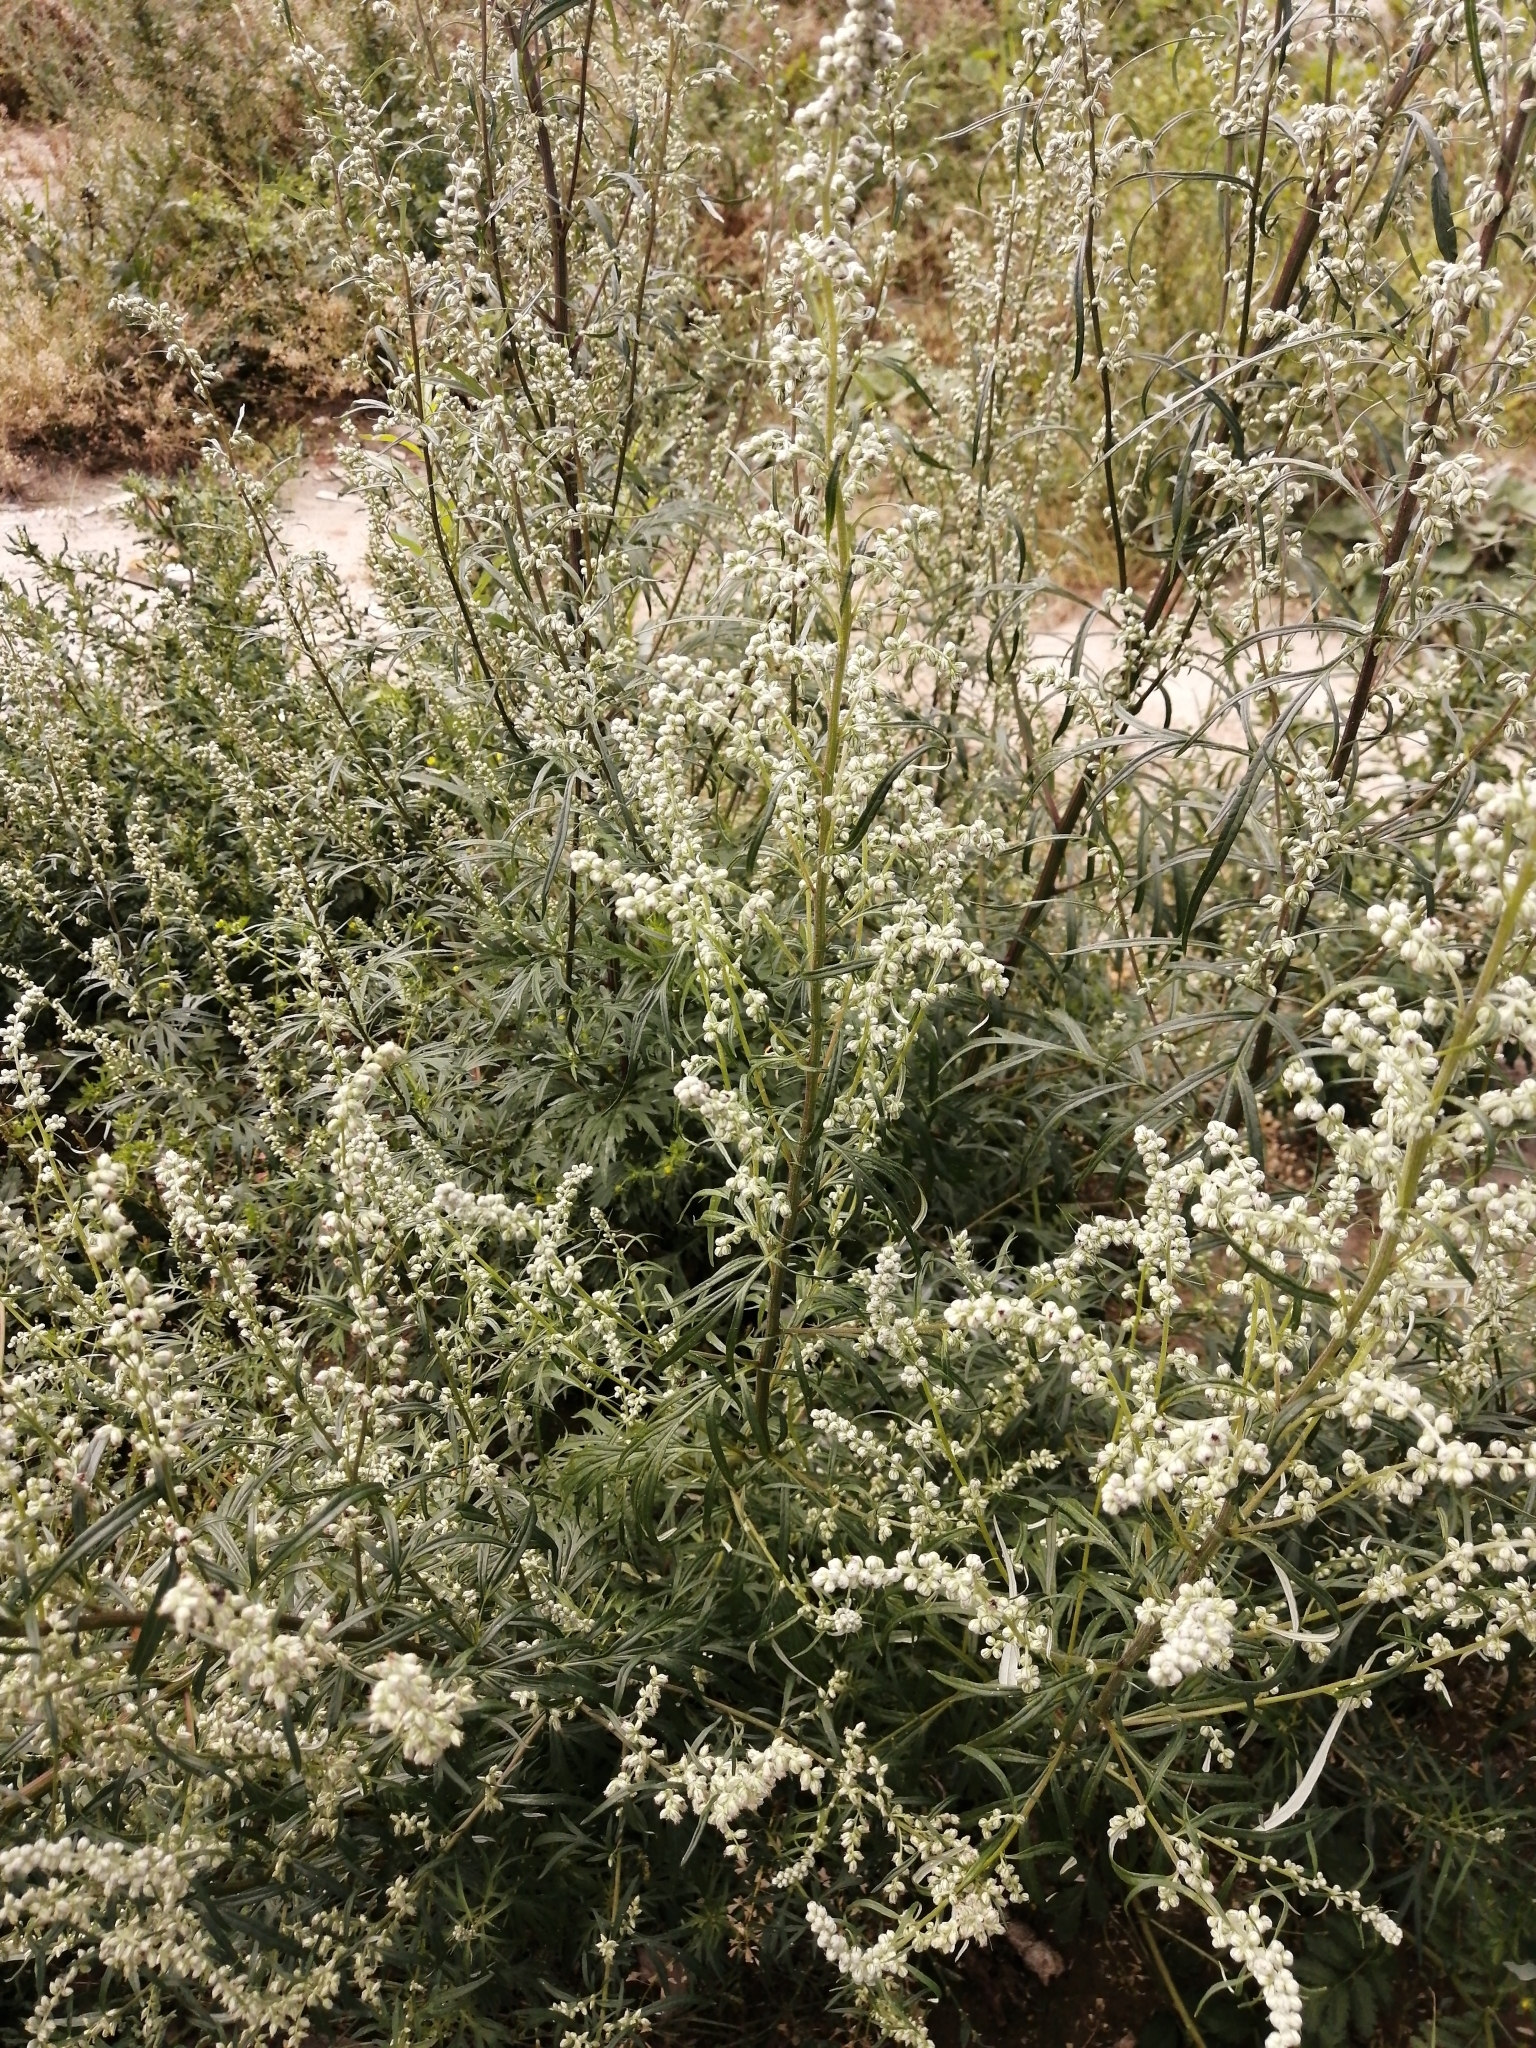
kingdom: Plantae
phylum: Tracheophyta
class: Magnoliopsida
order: Asterales
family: Asteraceae
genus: Artemisia
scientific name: Artemisia vulgaris
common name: Mugwort
